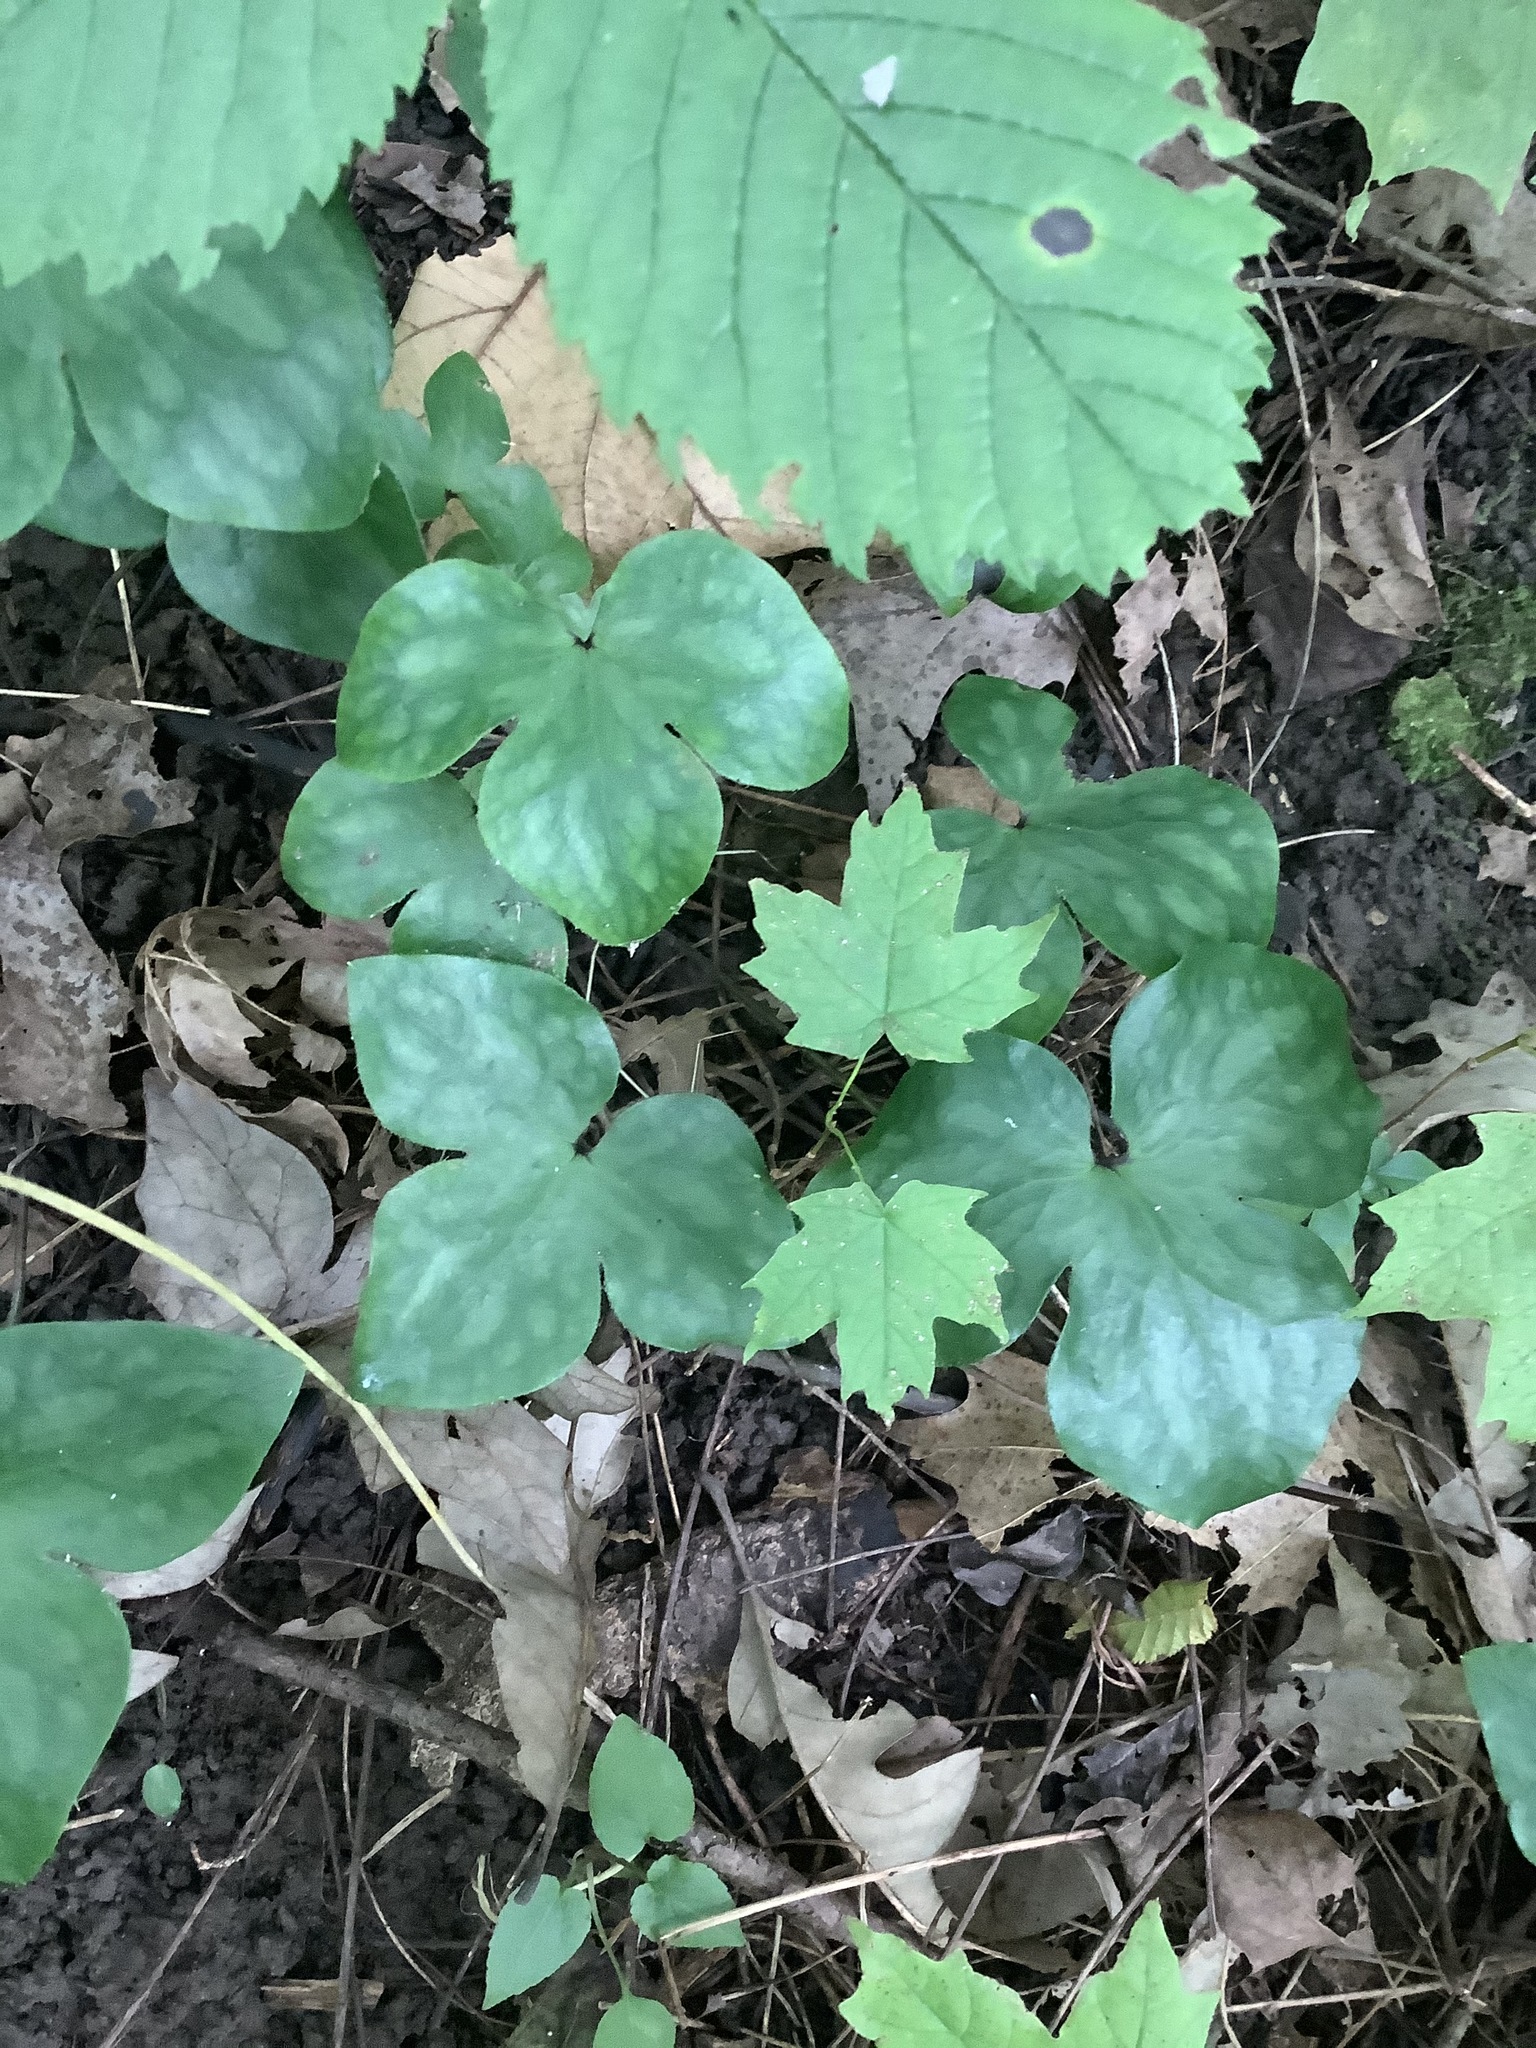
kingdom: Plantae
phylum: Tracheophyta
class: Magnoliopsida
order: Ranunculales
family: Ranunculaceae
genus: Hepatica
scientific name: Hepatica acutiloba
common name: Sharp-lobed hepatica
